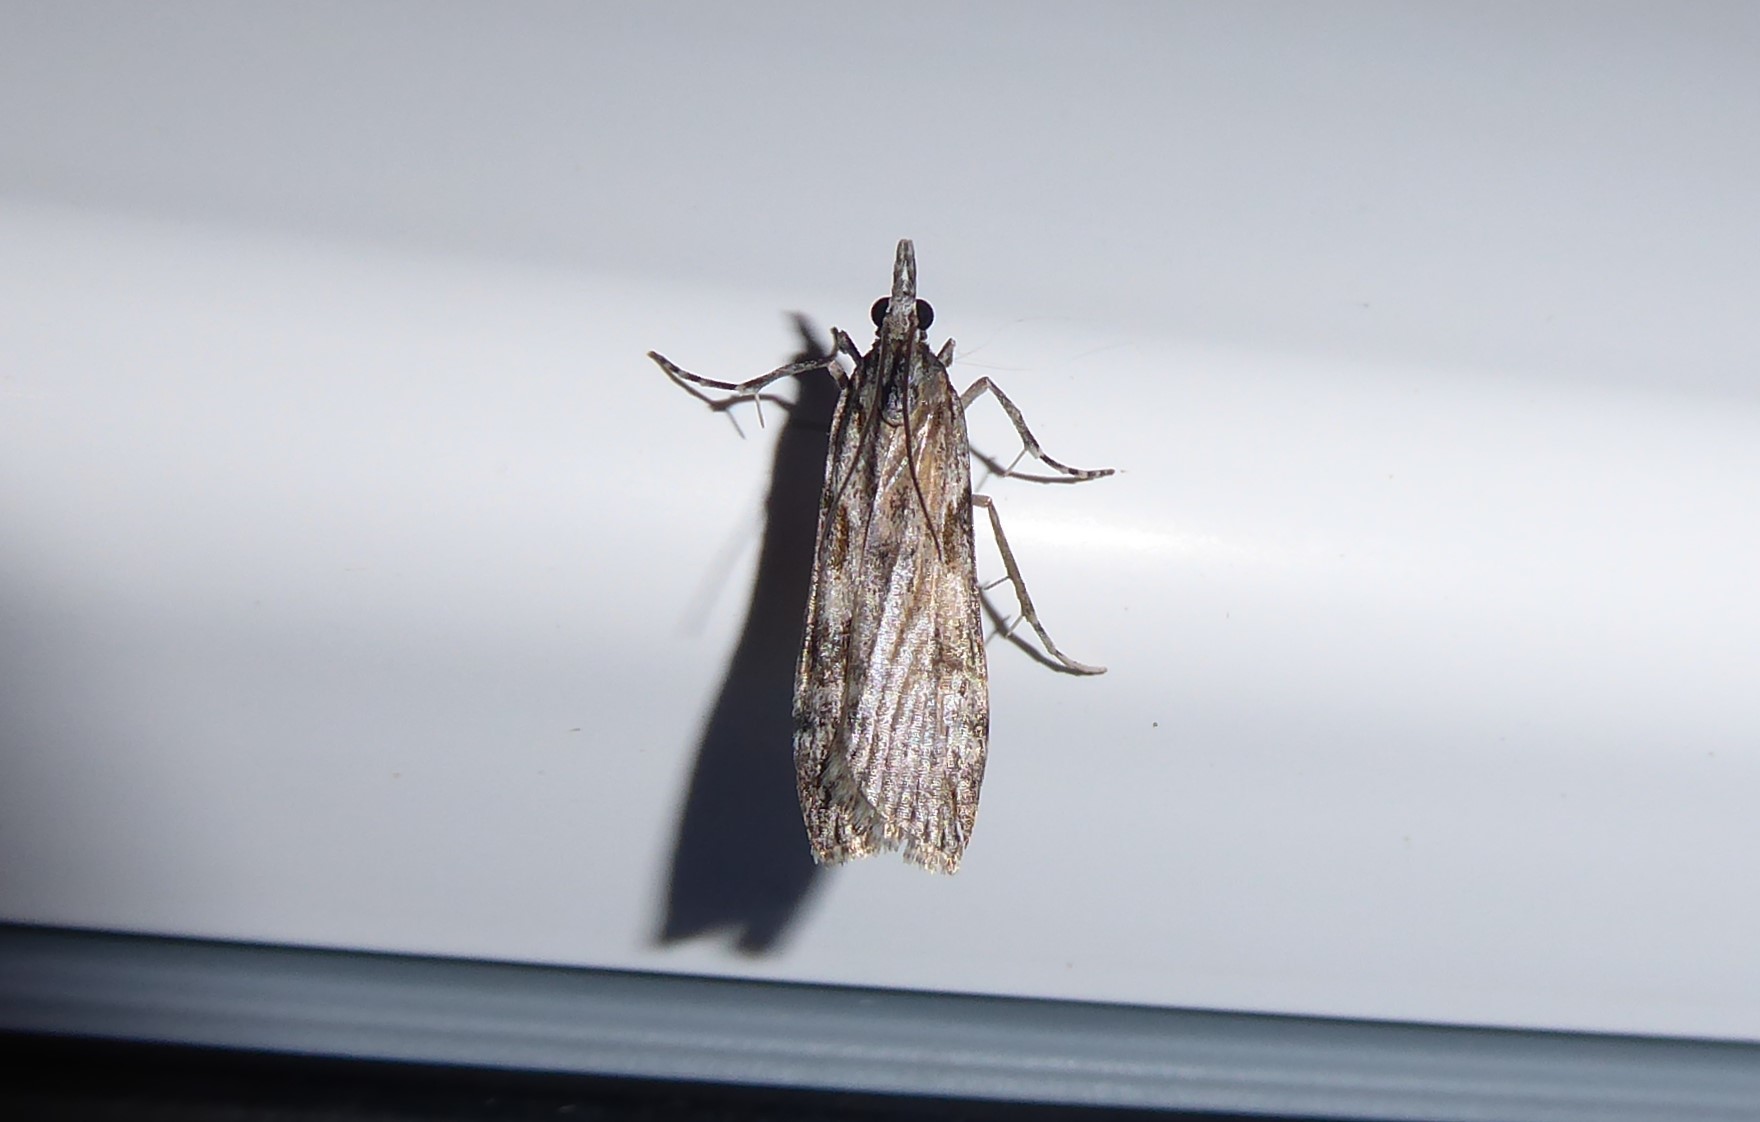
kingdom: Animalia
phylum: Arthropoda
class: Insecta
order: Lepidoptera
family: Crambidae
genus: Scoparia
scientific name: Scoparia halopis
